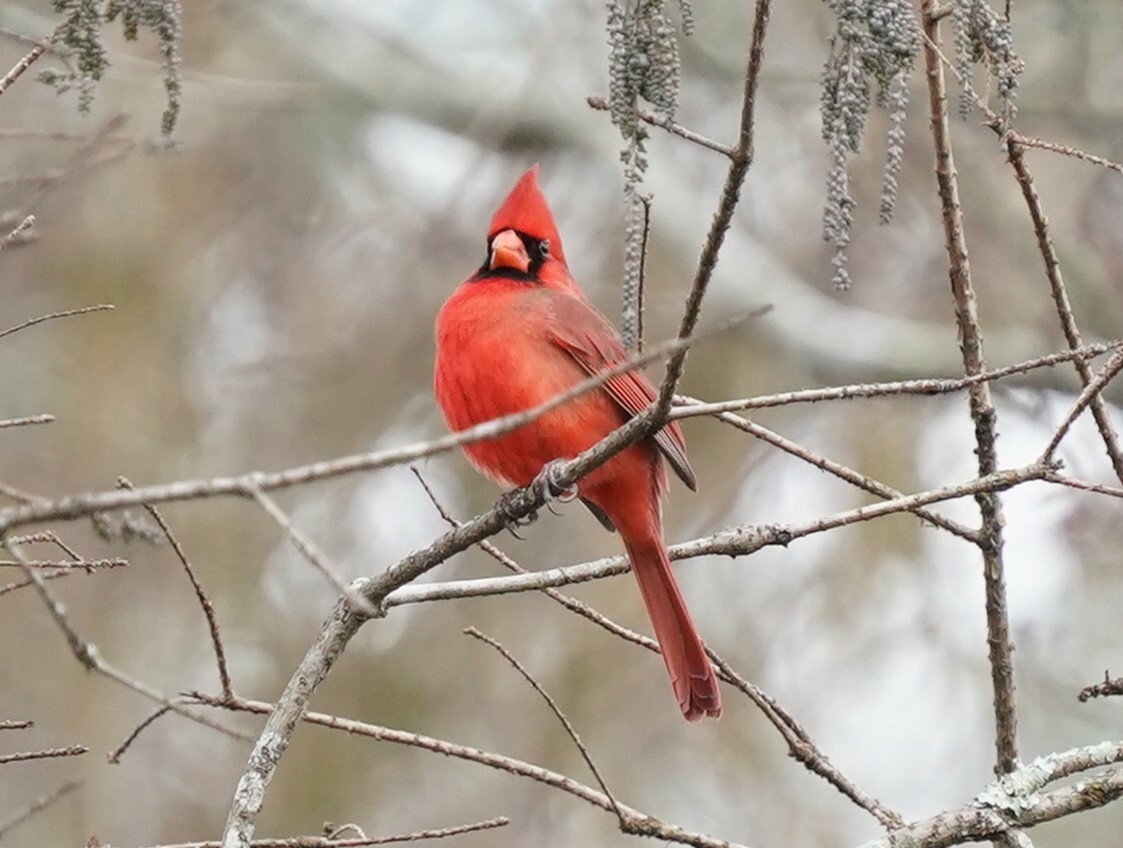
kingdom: Animalia
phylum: Chordata
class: Aves
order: Passeriformes
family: Cardinalidae
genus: Cardinalis
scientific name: Cardinalis cardinalis
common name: Northern cardinal
